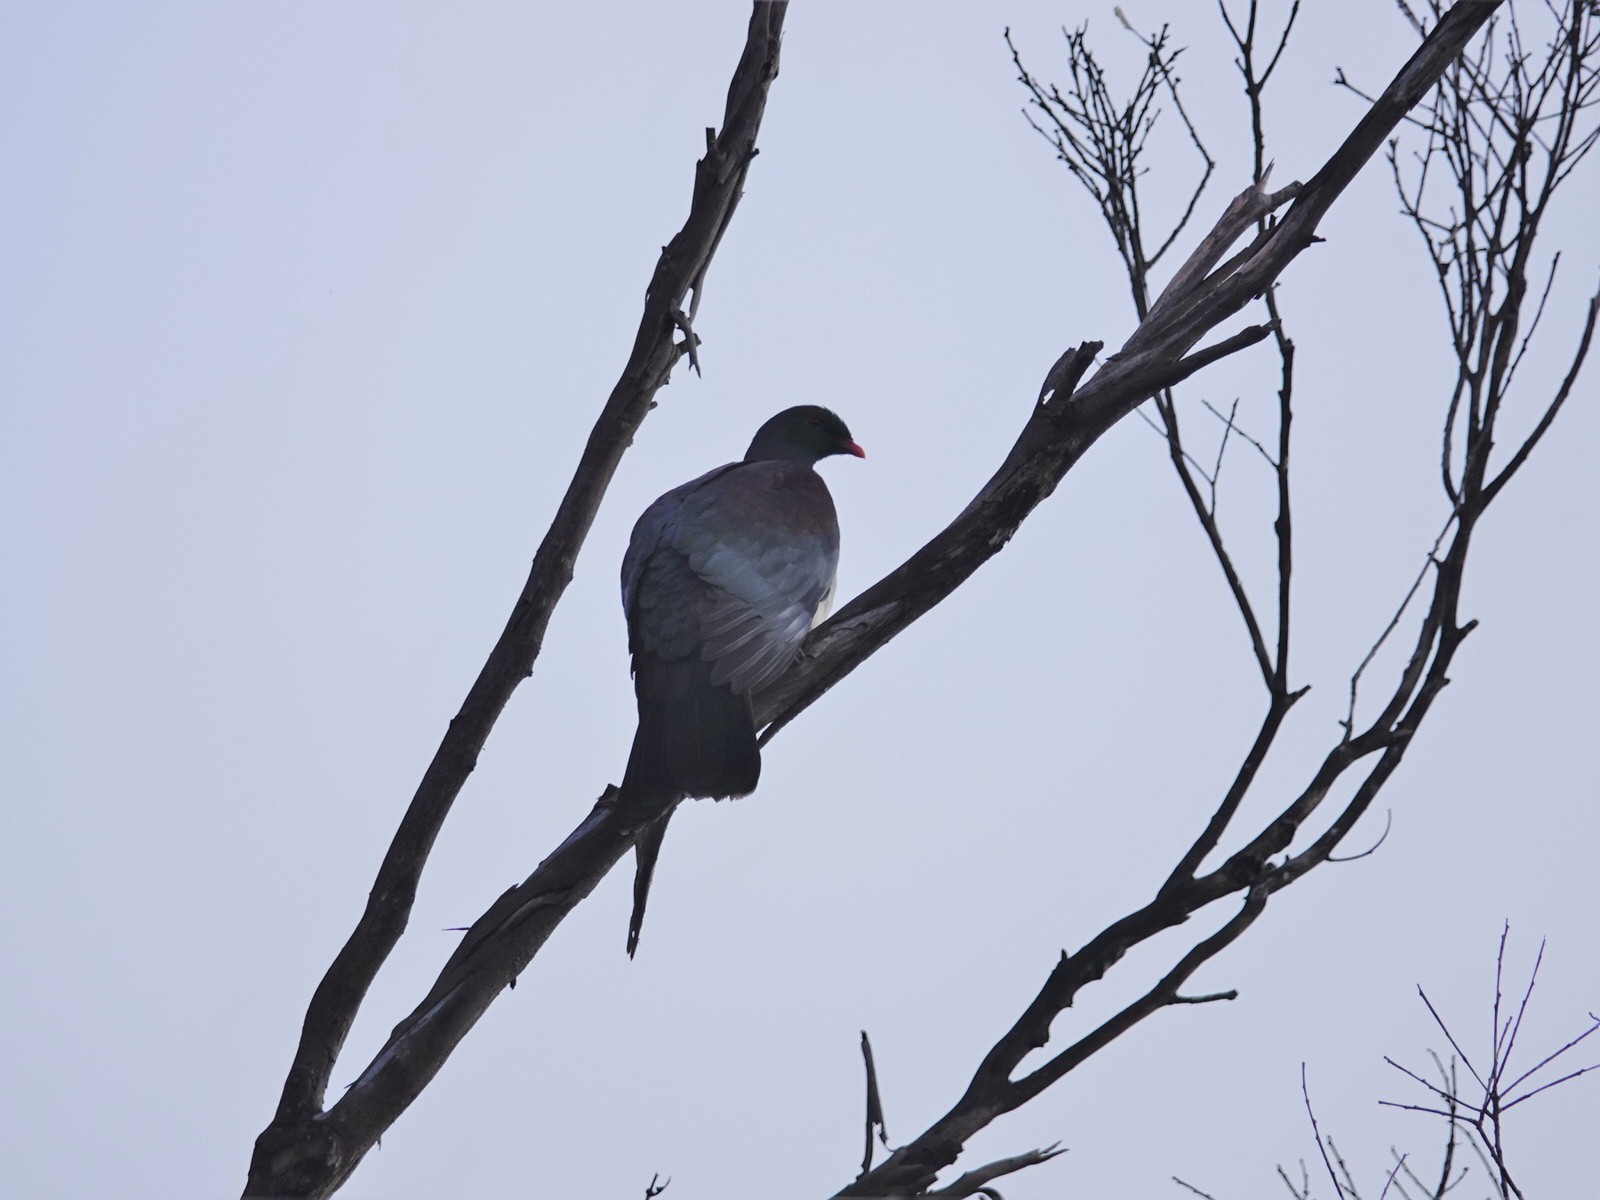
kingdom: Animalia
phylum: Chordata
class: Aves
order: Columbiformes
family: Columbidae
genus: Hemiphaga
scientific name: Hemiphaga novaeseelandiae
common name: New zealand pigeon
